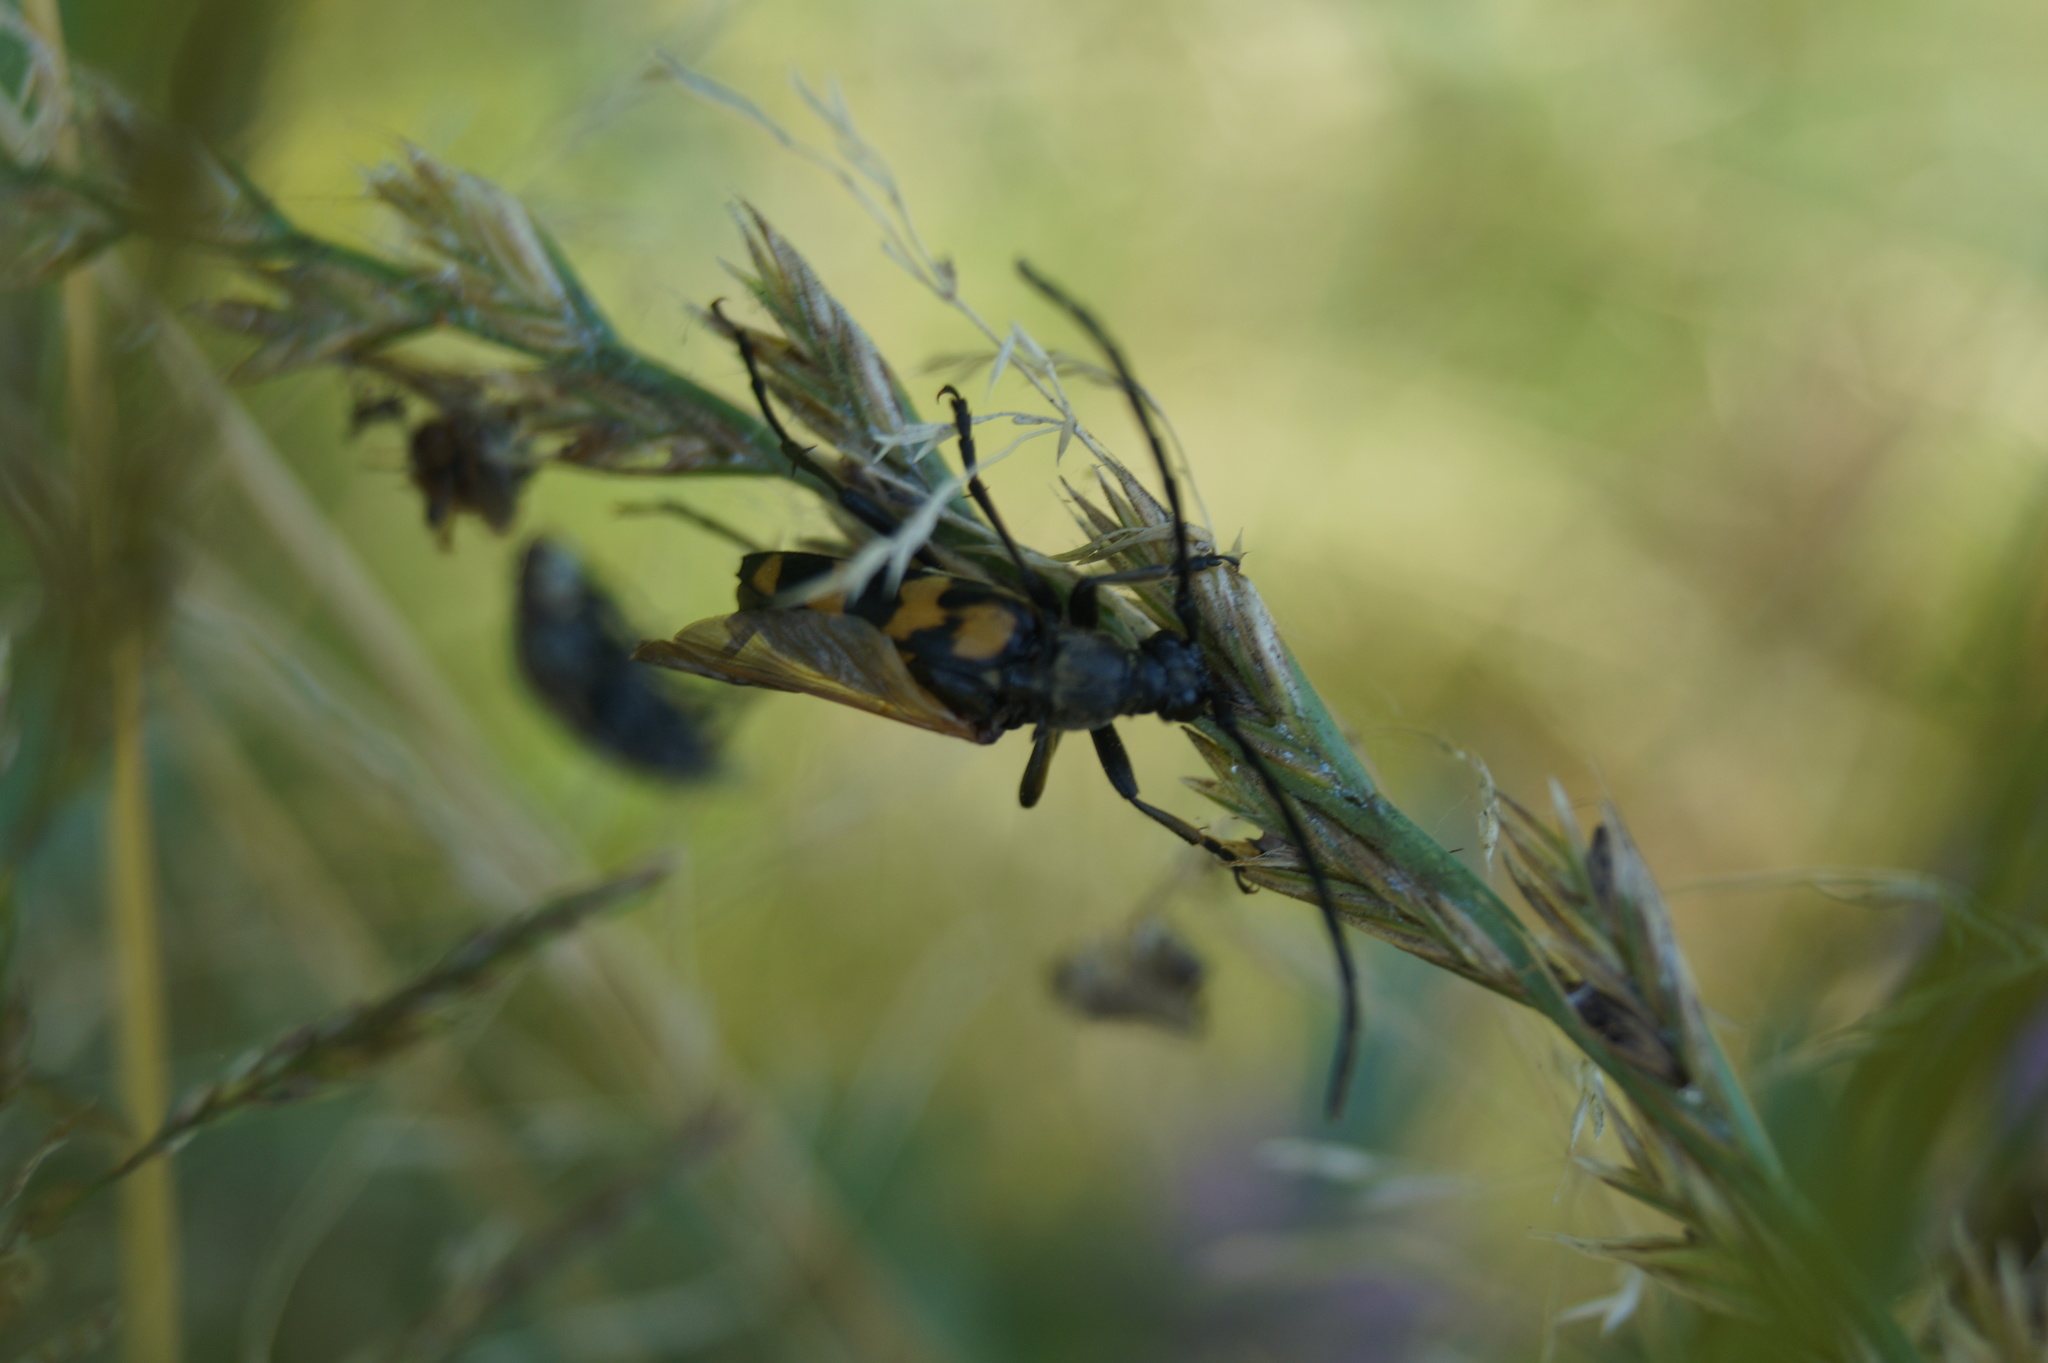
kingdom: Animalia
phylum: Arthropoda
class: Insecta
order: Coleoptera
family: Cerambycidae
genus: Leptura
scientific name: Leptura quadrifasciata
